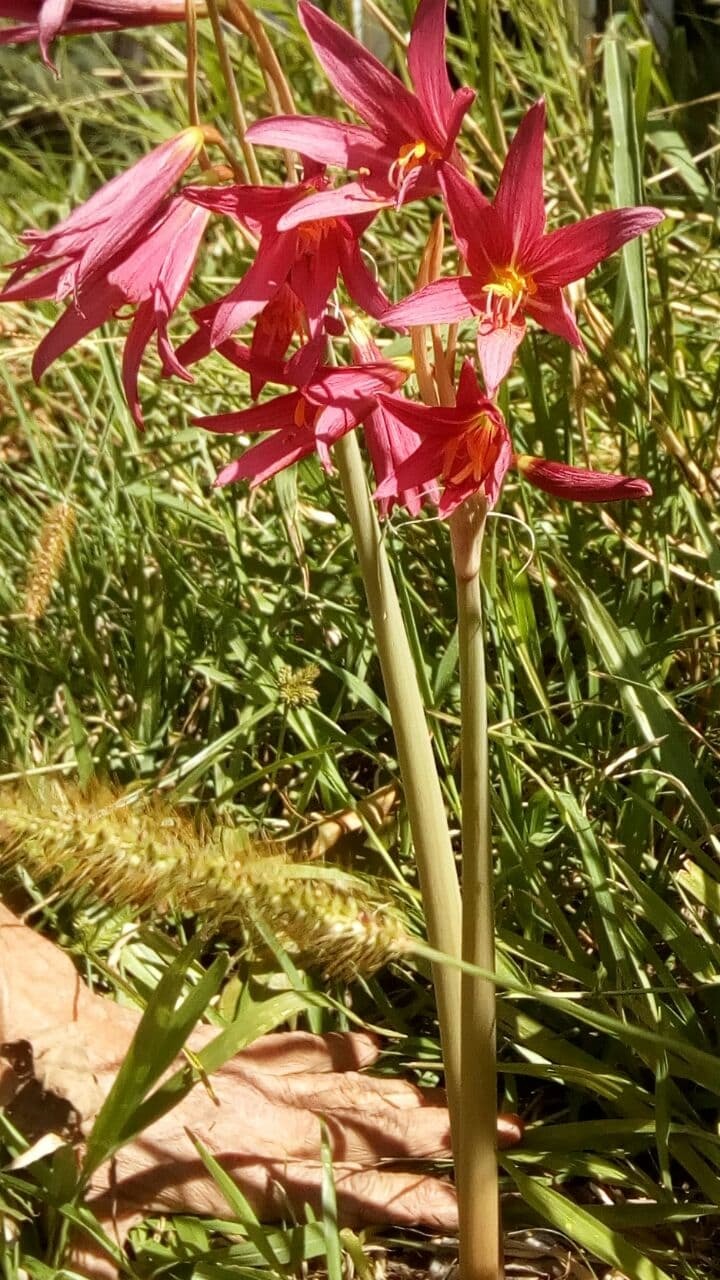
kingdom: Plantae
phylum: Tracheophyta
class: Liliopsida
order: Asparagales
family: Amaryllidaceae
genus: Zephyranthes
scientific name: Zephyranthes bifida
